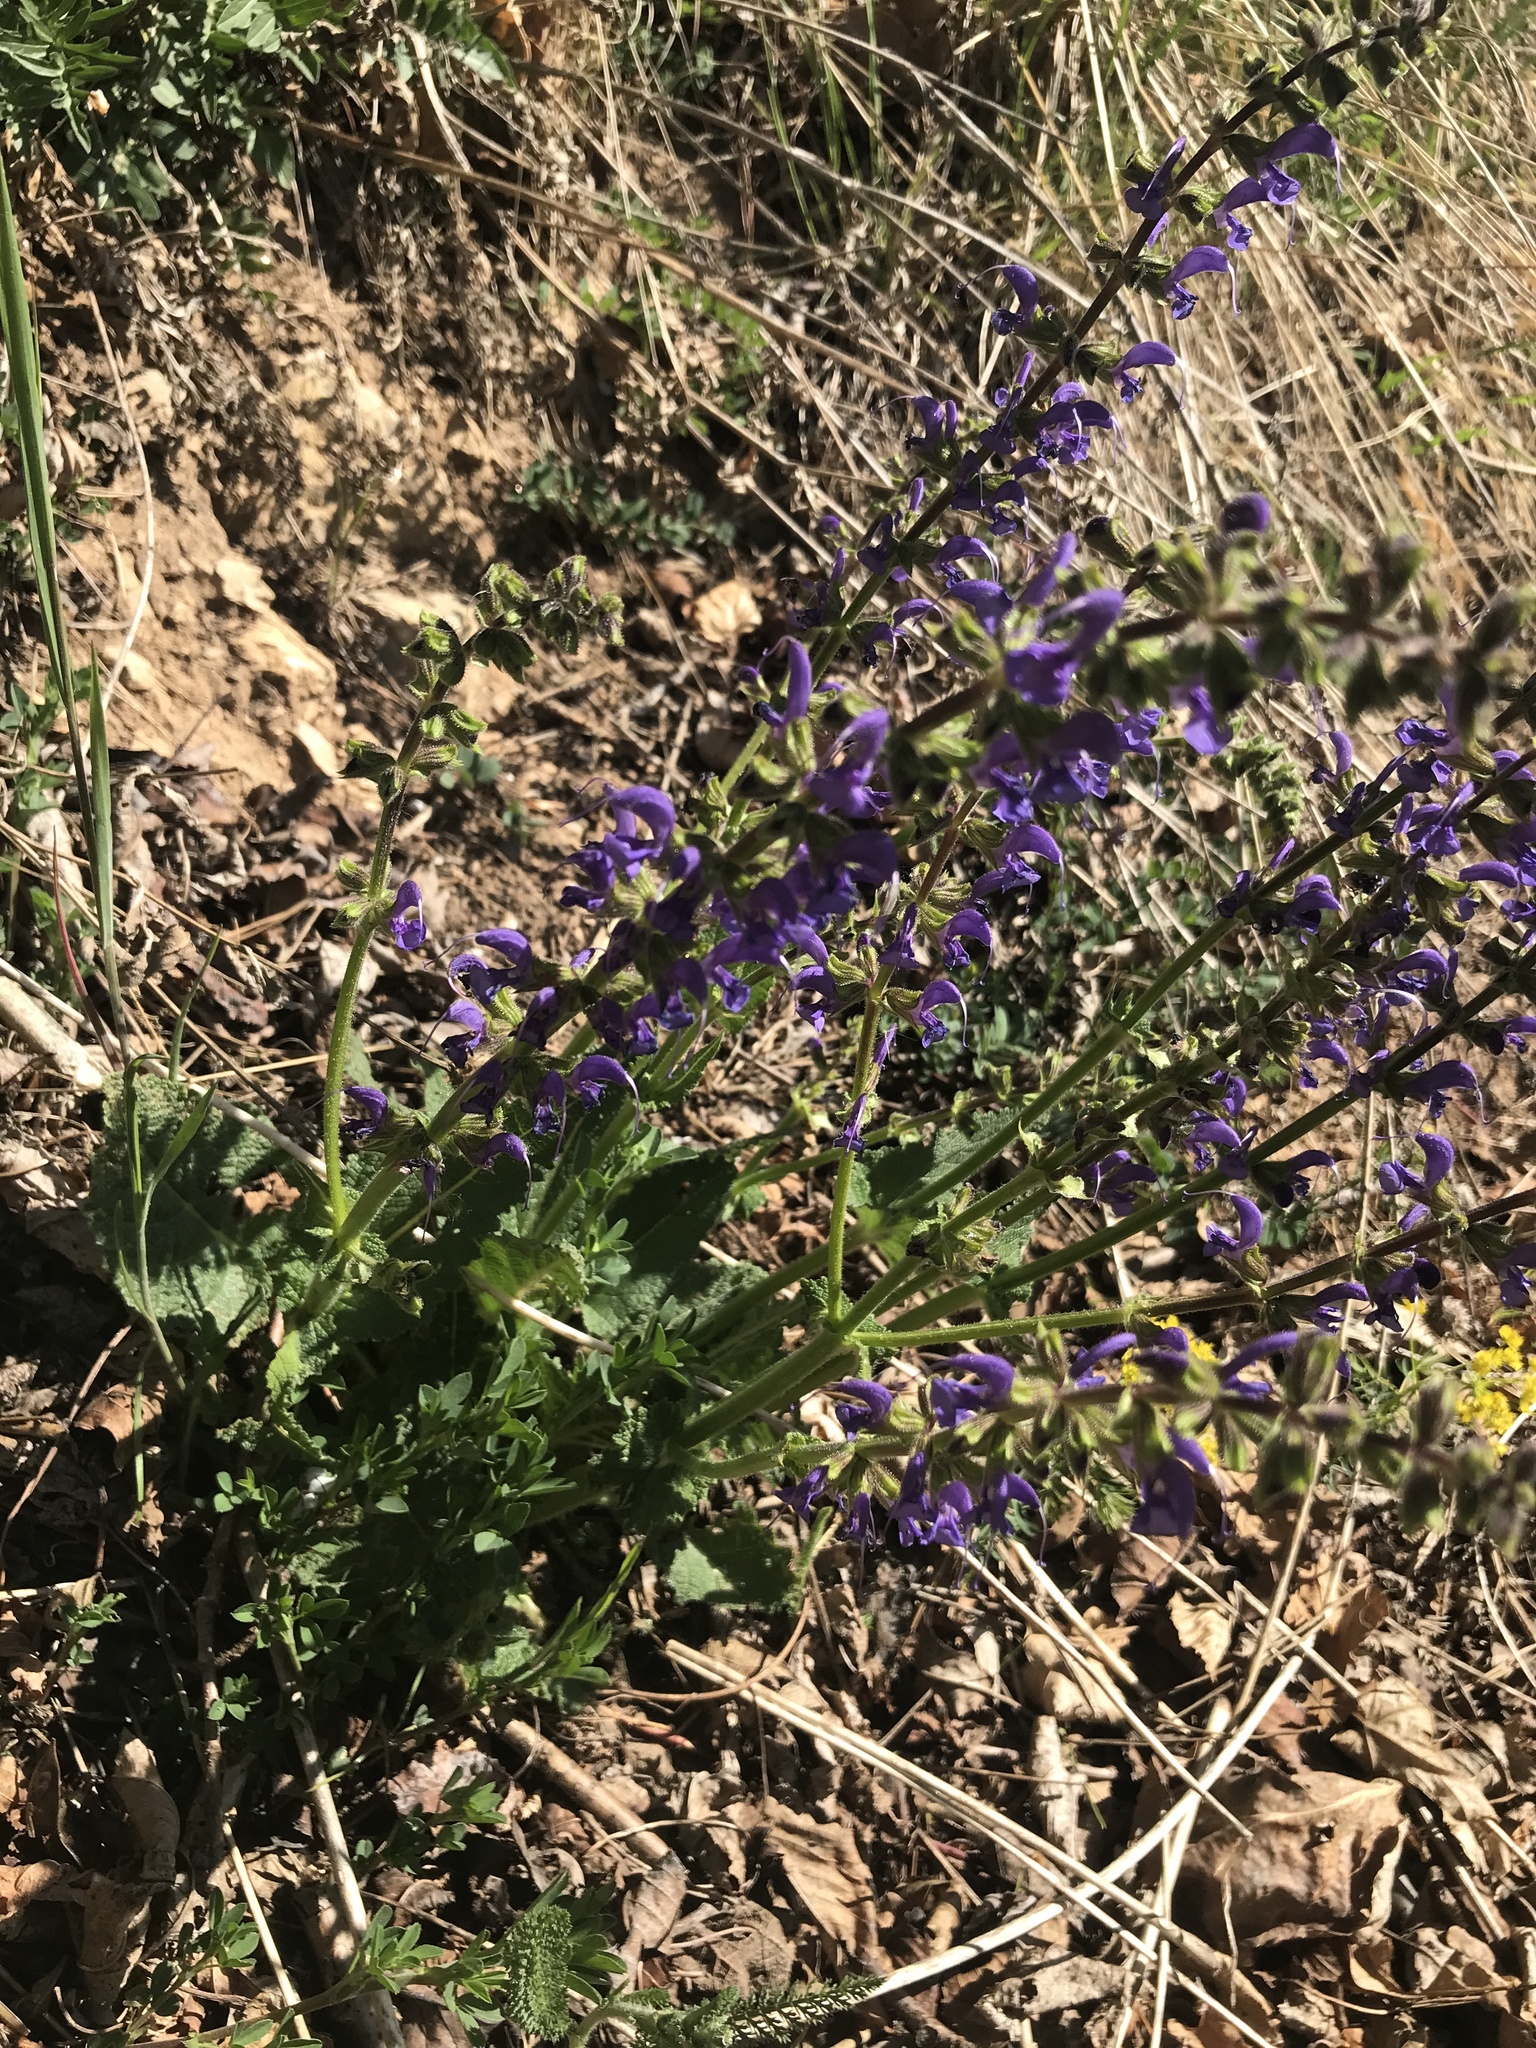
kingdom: Plantae
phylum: Tracheophyta
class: Magnoliopsida
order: Lamiales
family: Lamiaceae
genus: Salvia
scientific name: Salvia pratensis
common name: Meadow sage
